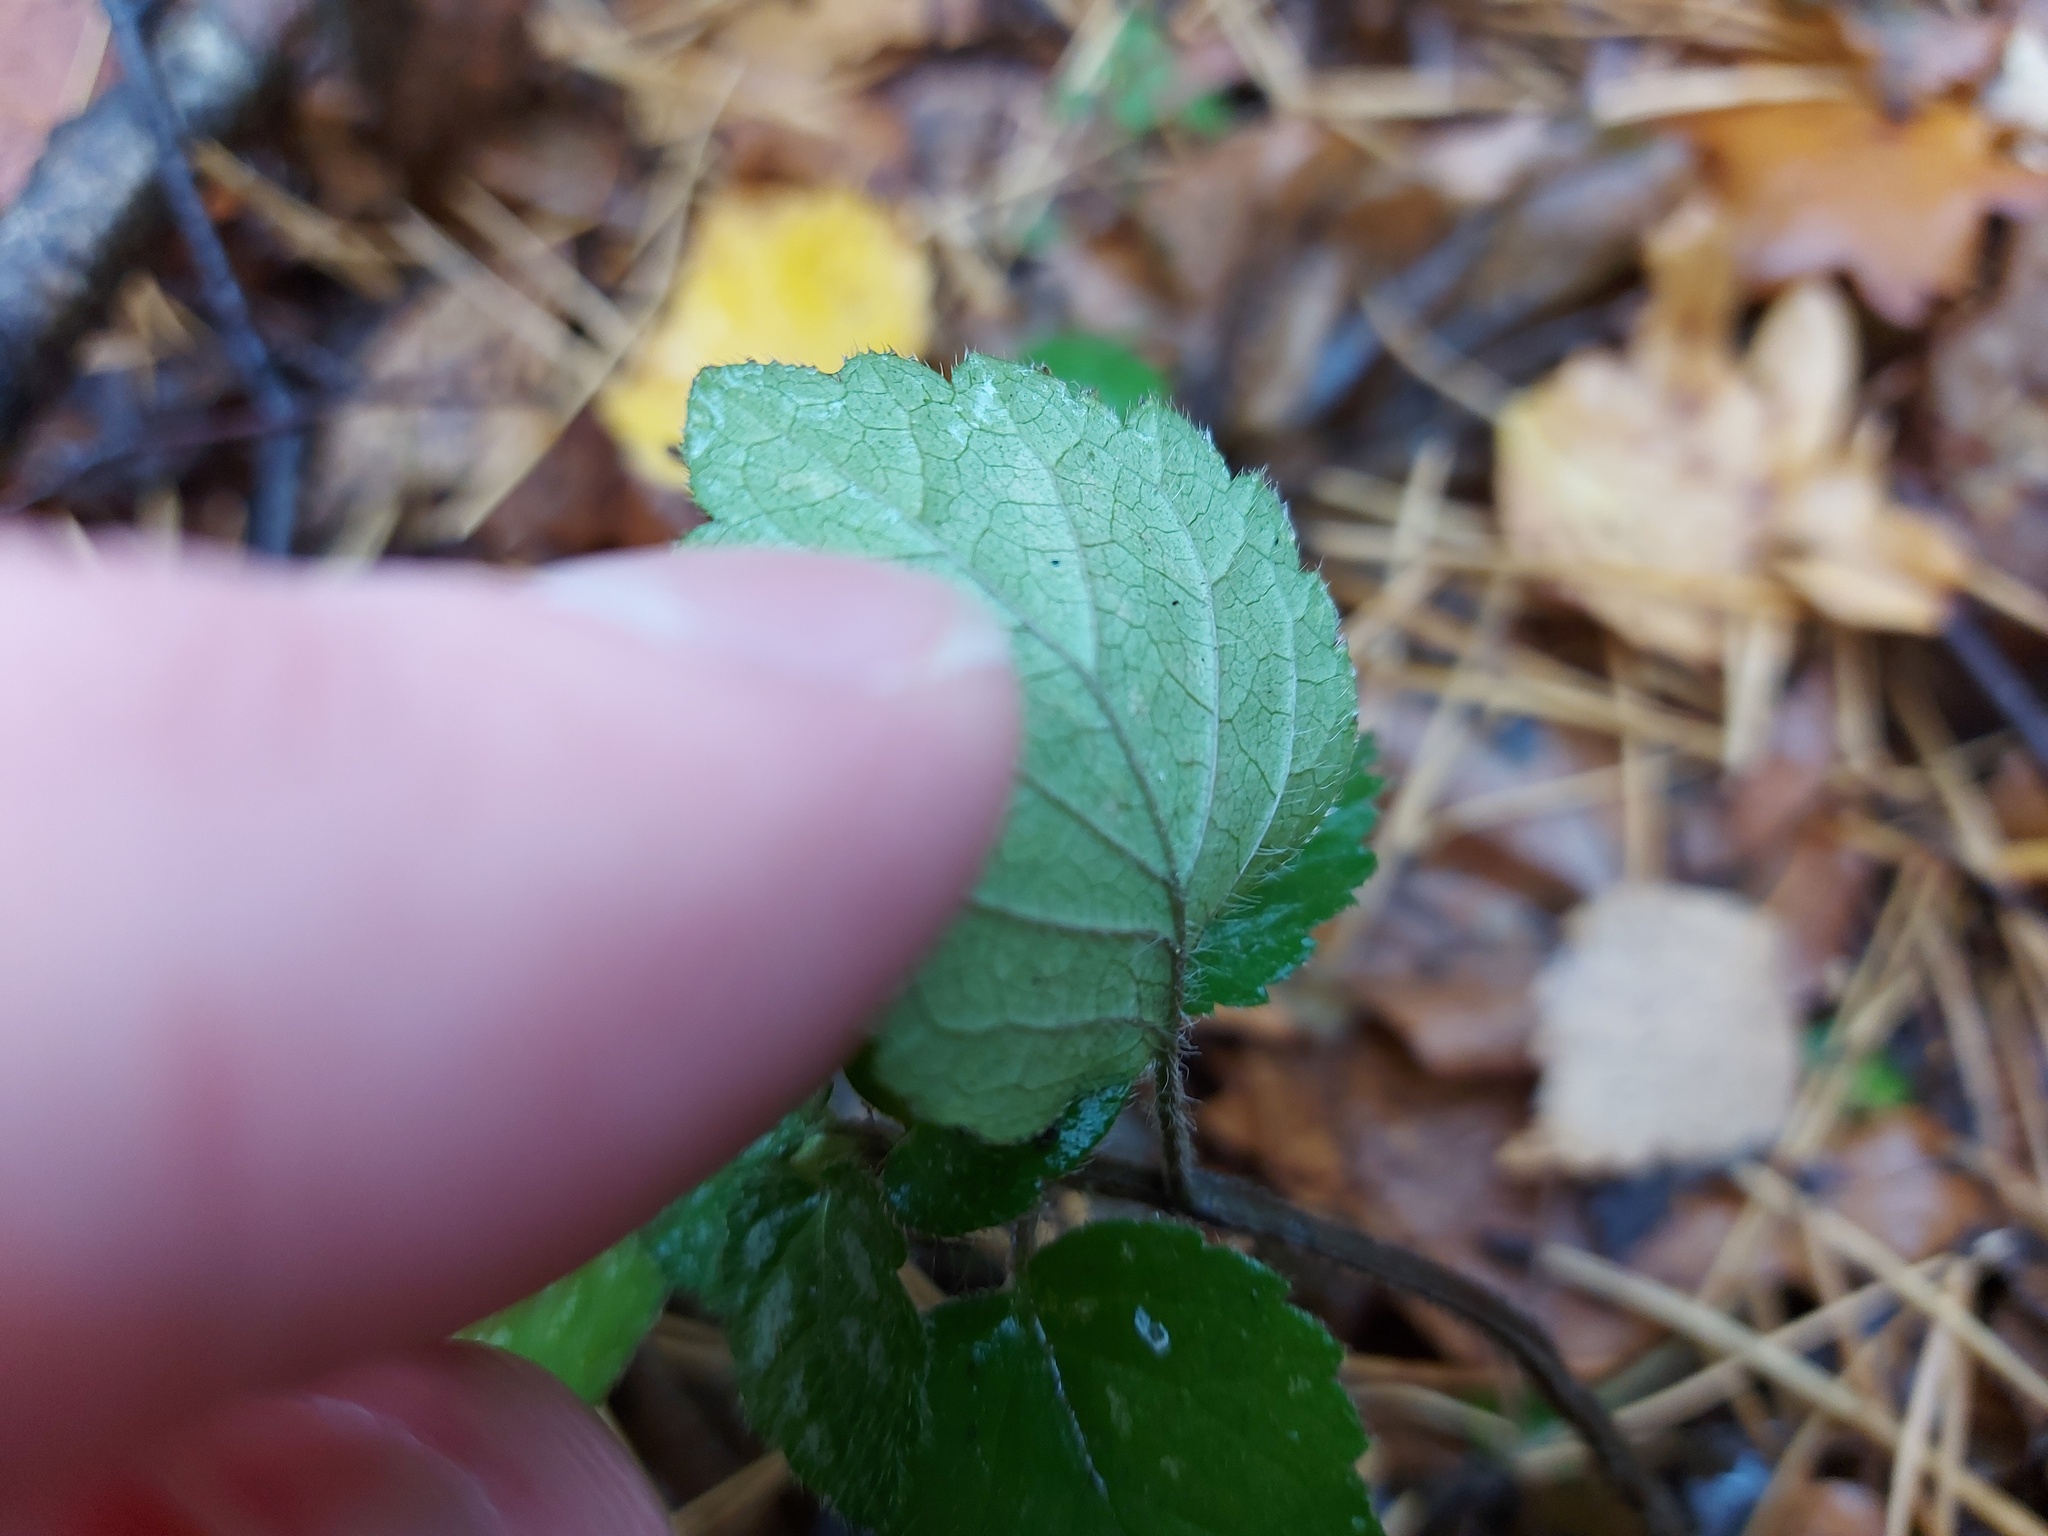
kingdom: Plantae
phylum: Tracheophyta
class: Magnoliopsida
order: Lamiales
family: Lamiaceae
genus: Lamium
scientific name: Lamium galeobdolon
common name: Yellow archangel
